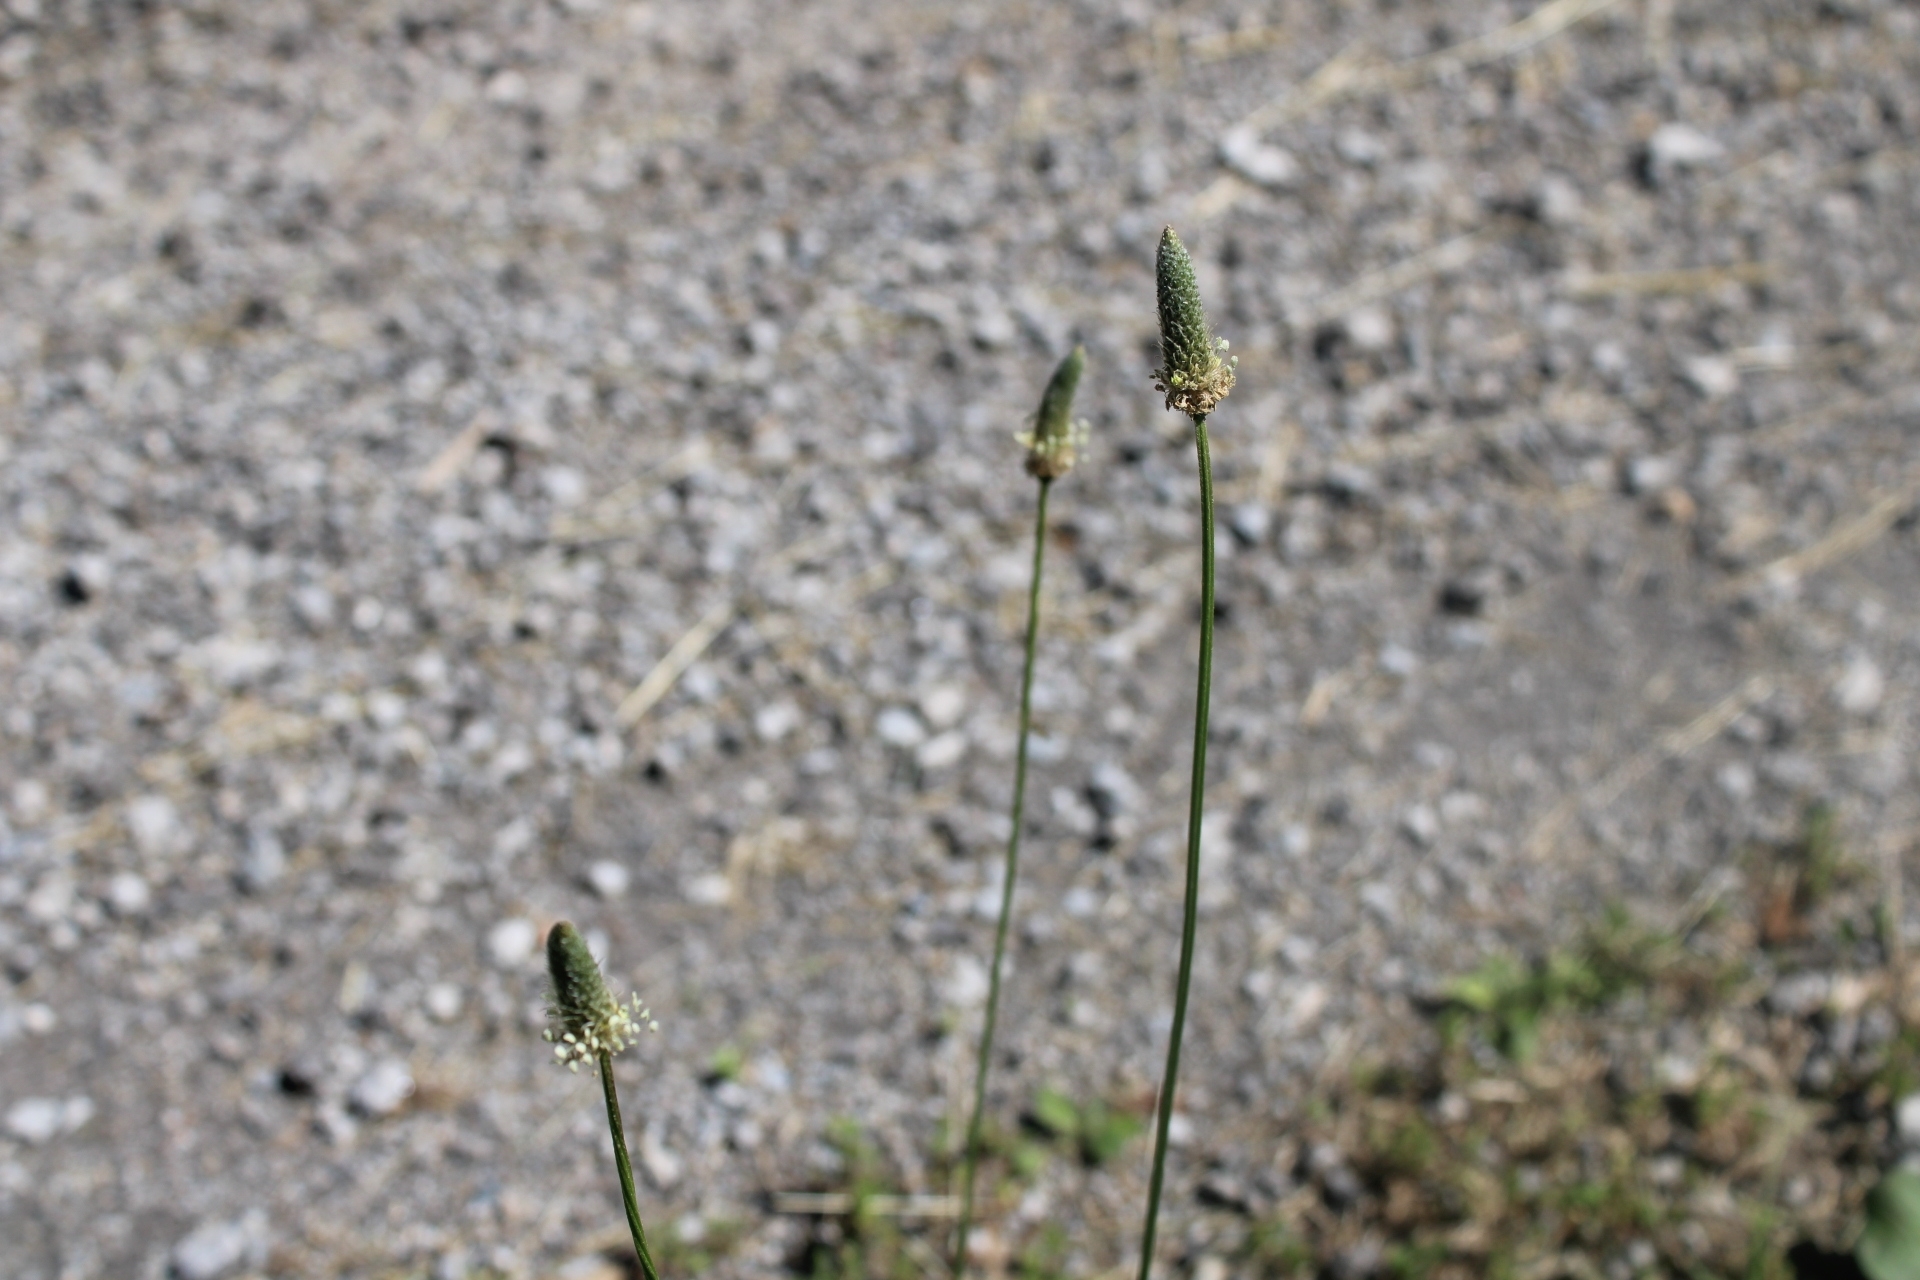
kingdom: Plantae
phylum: Tracheophyta
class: Magnoliopsida
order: Lamiales
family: Plantaginaceae
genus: Plantago
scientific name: Plantago lanceolata
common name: Ribwort plantain
